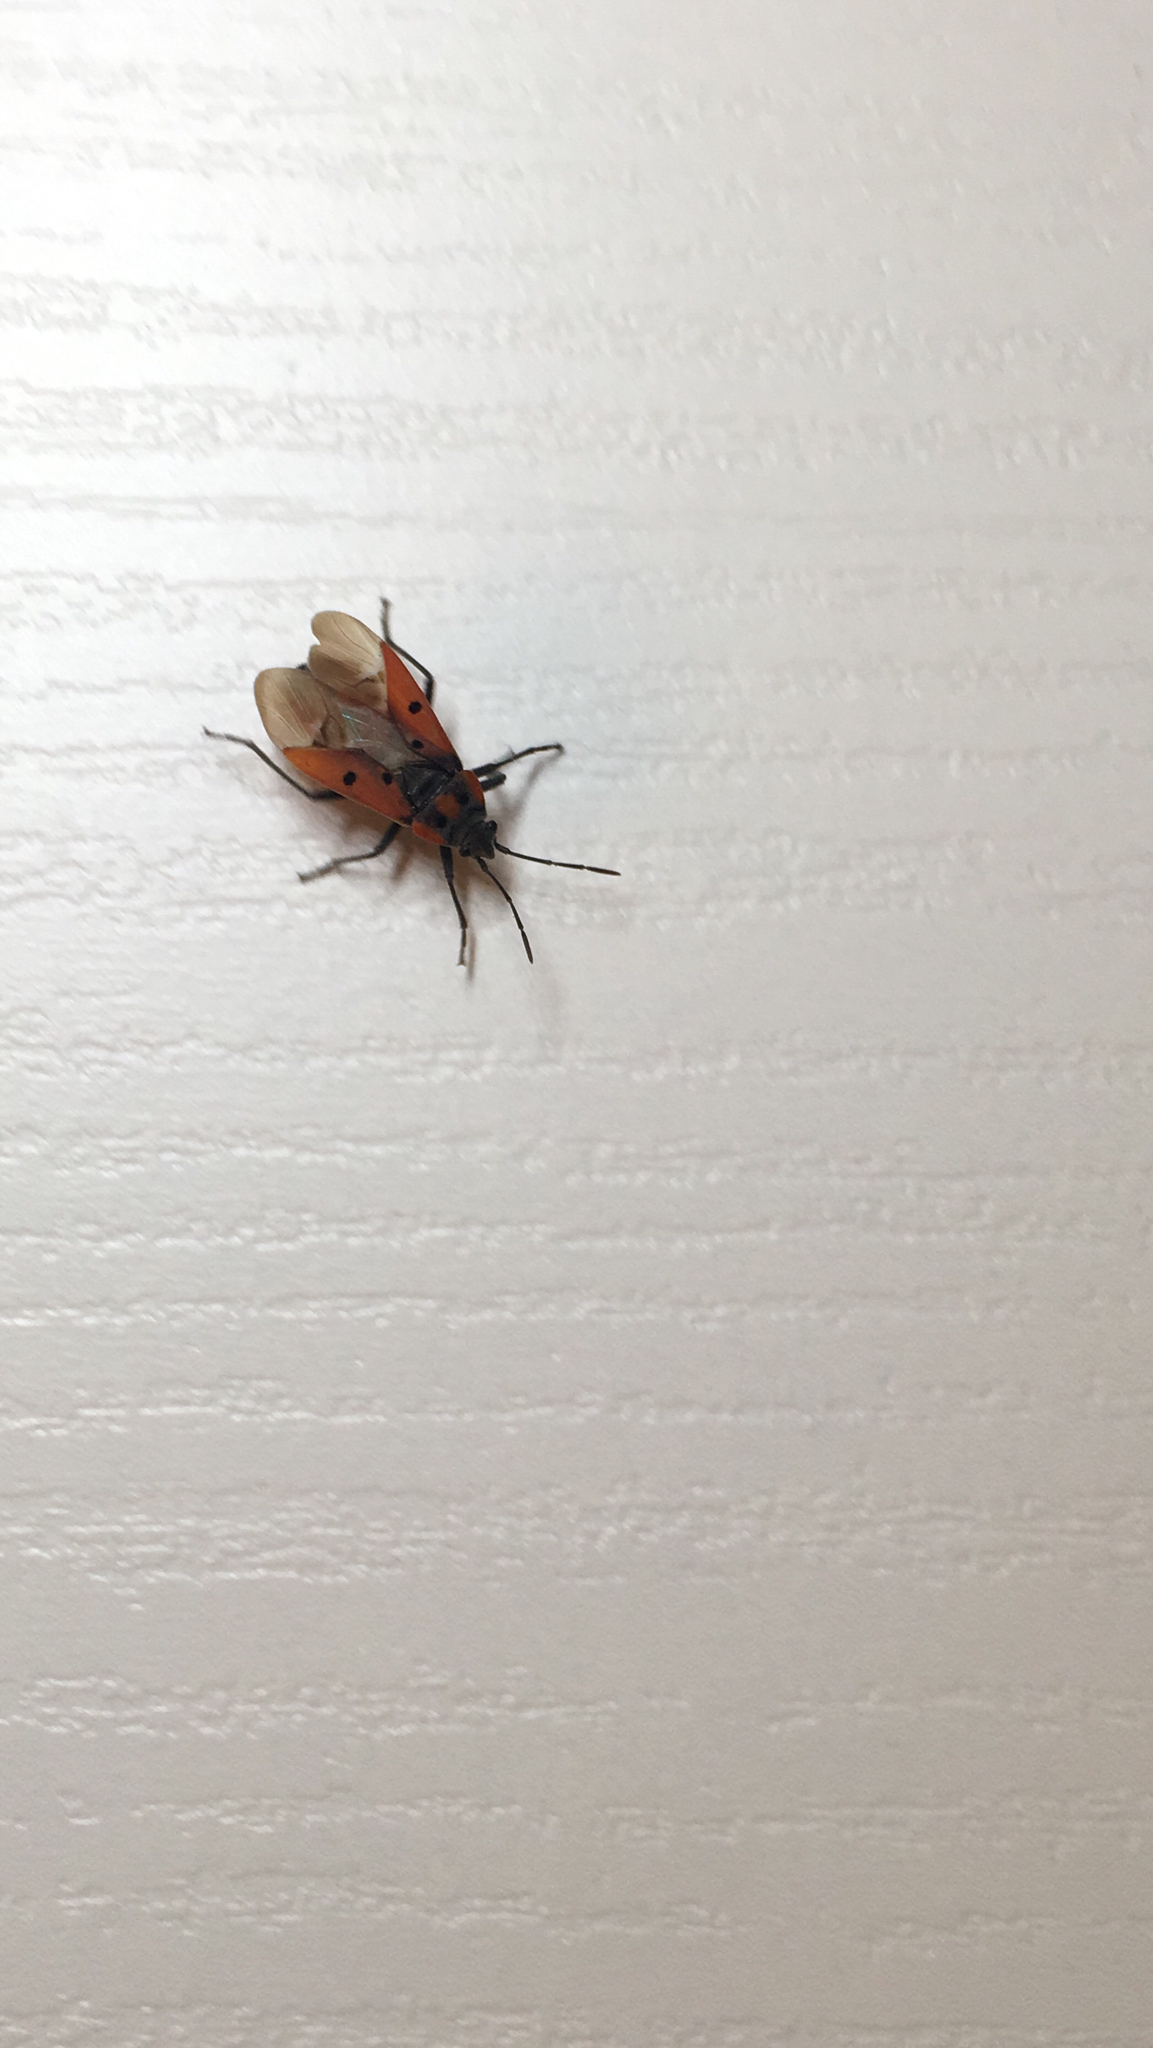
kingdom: Animalia
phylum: Arthropoda
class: Insecta
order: Hemiptera
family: Lygaeidae
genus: Lygaeus
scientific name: Lygaeus creticus
